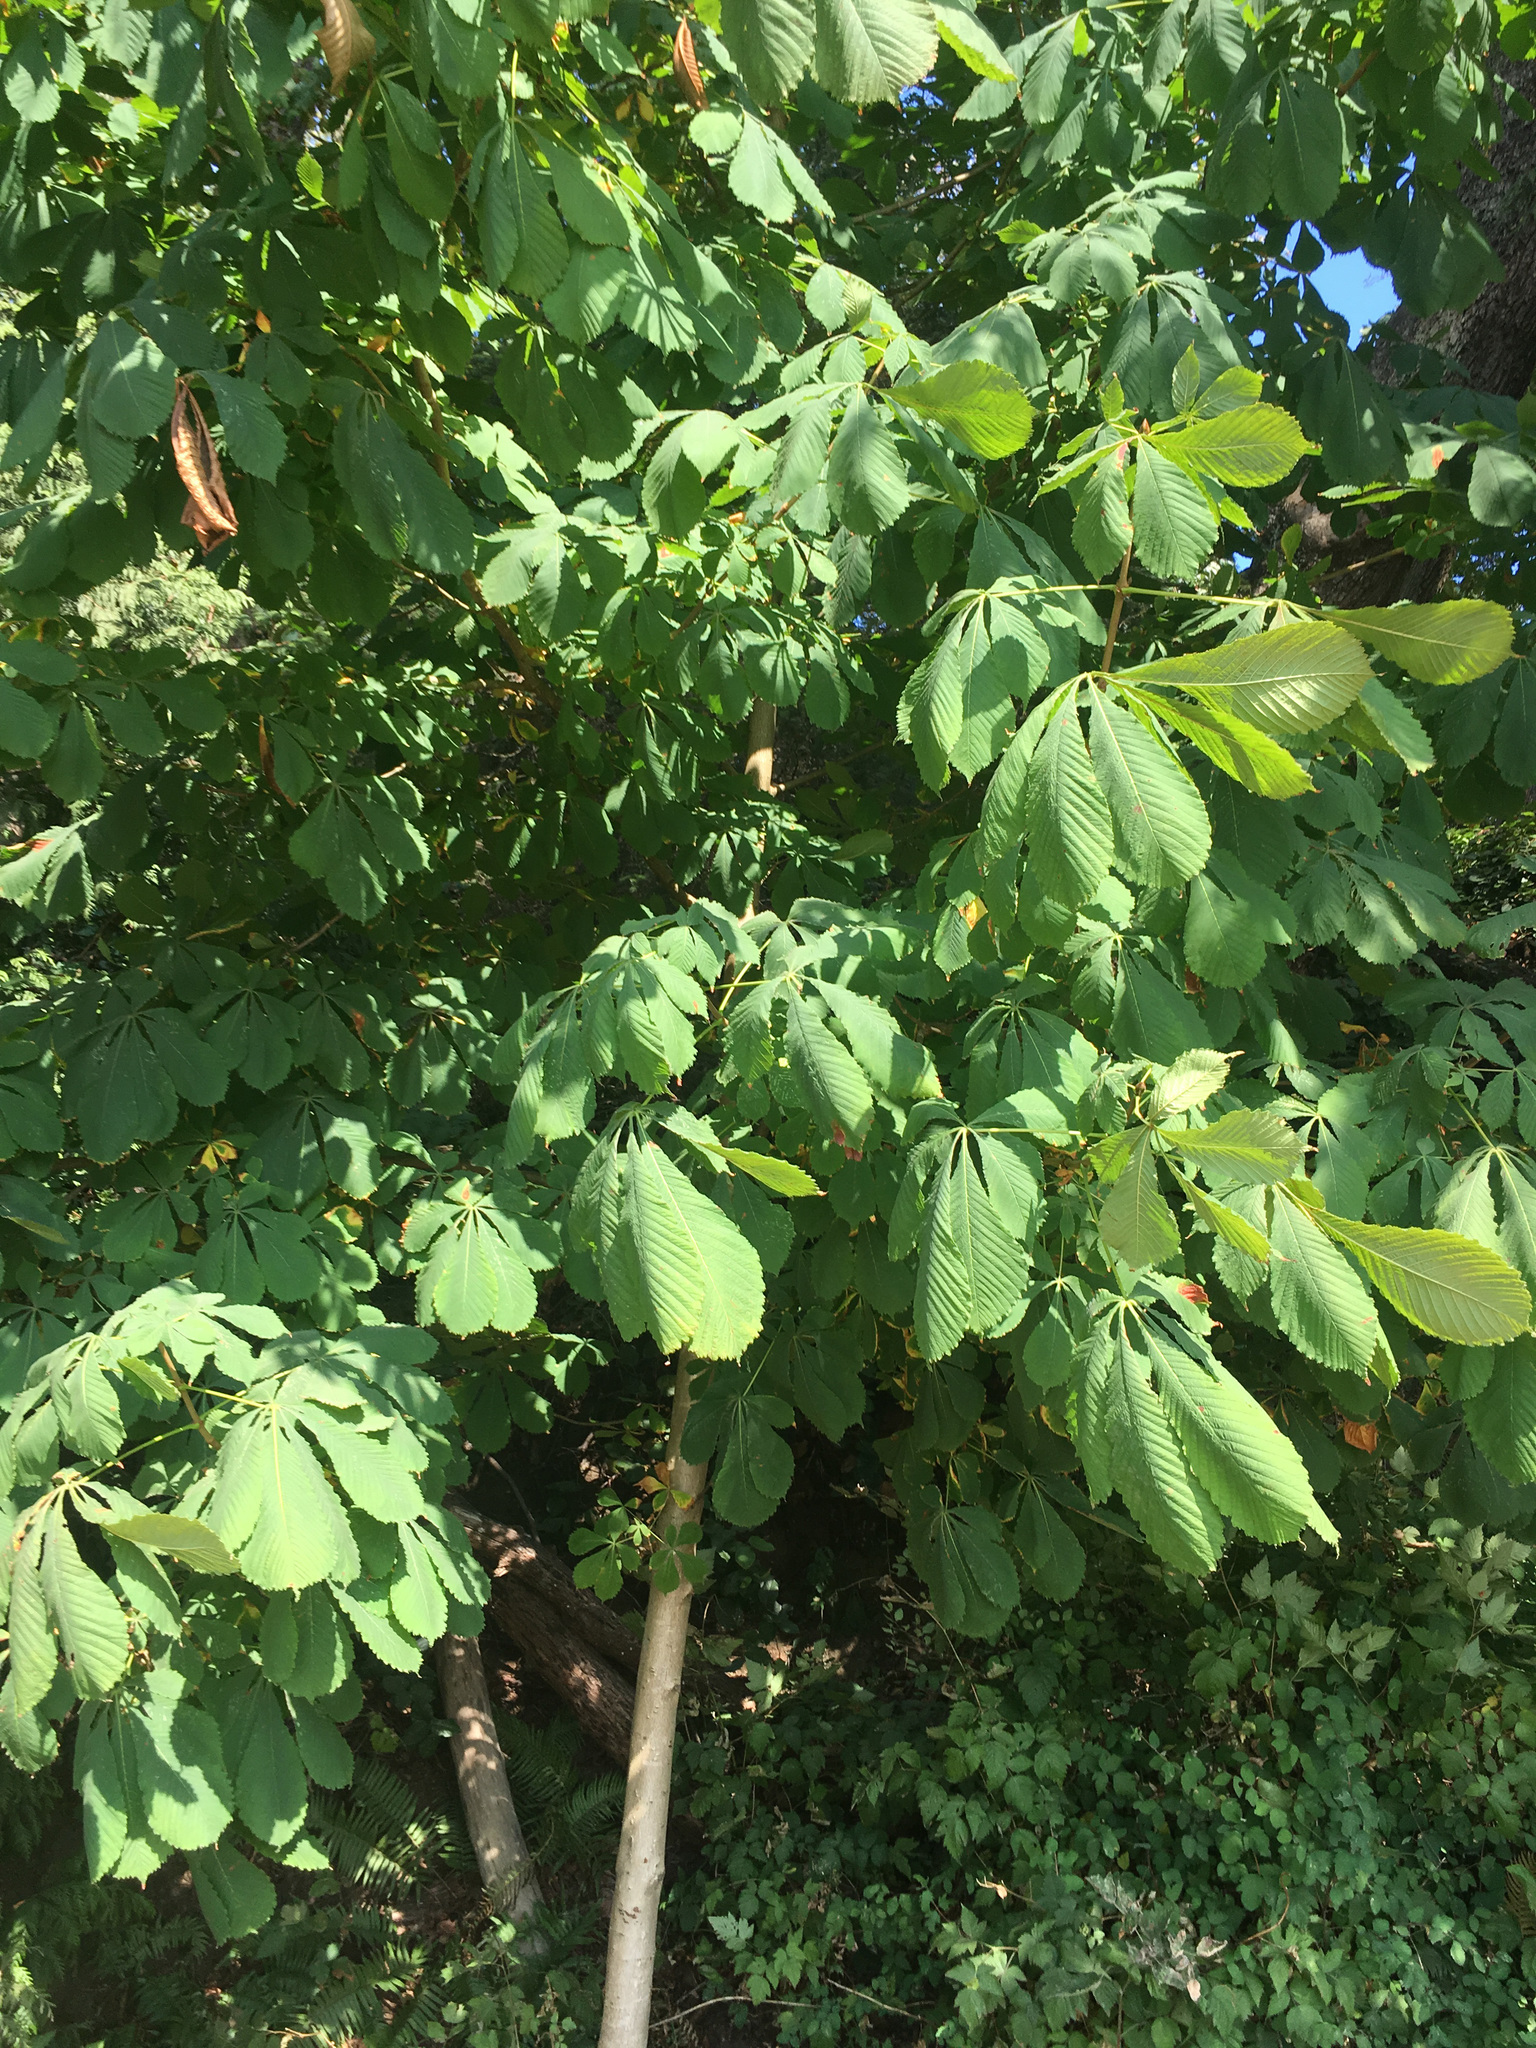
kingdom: Plantae
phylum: Tracheophyta
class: Magnoliopsida
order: Sapindales
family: Sapindaceae
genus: Aesculus
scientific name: Aesculus hippocastanum
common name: Horse-chestnut
